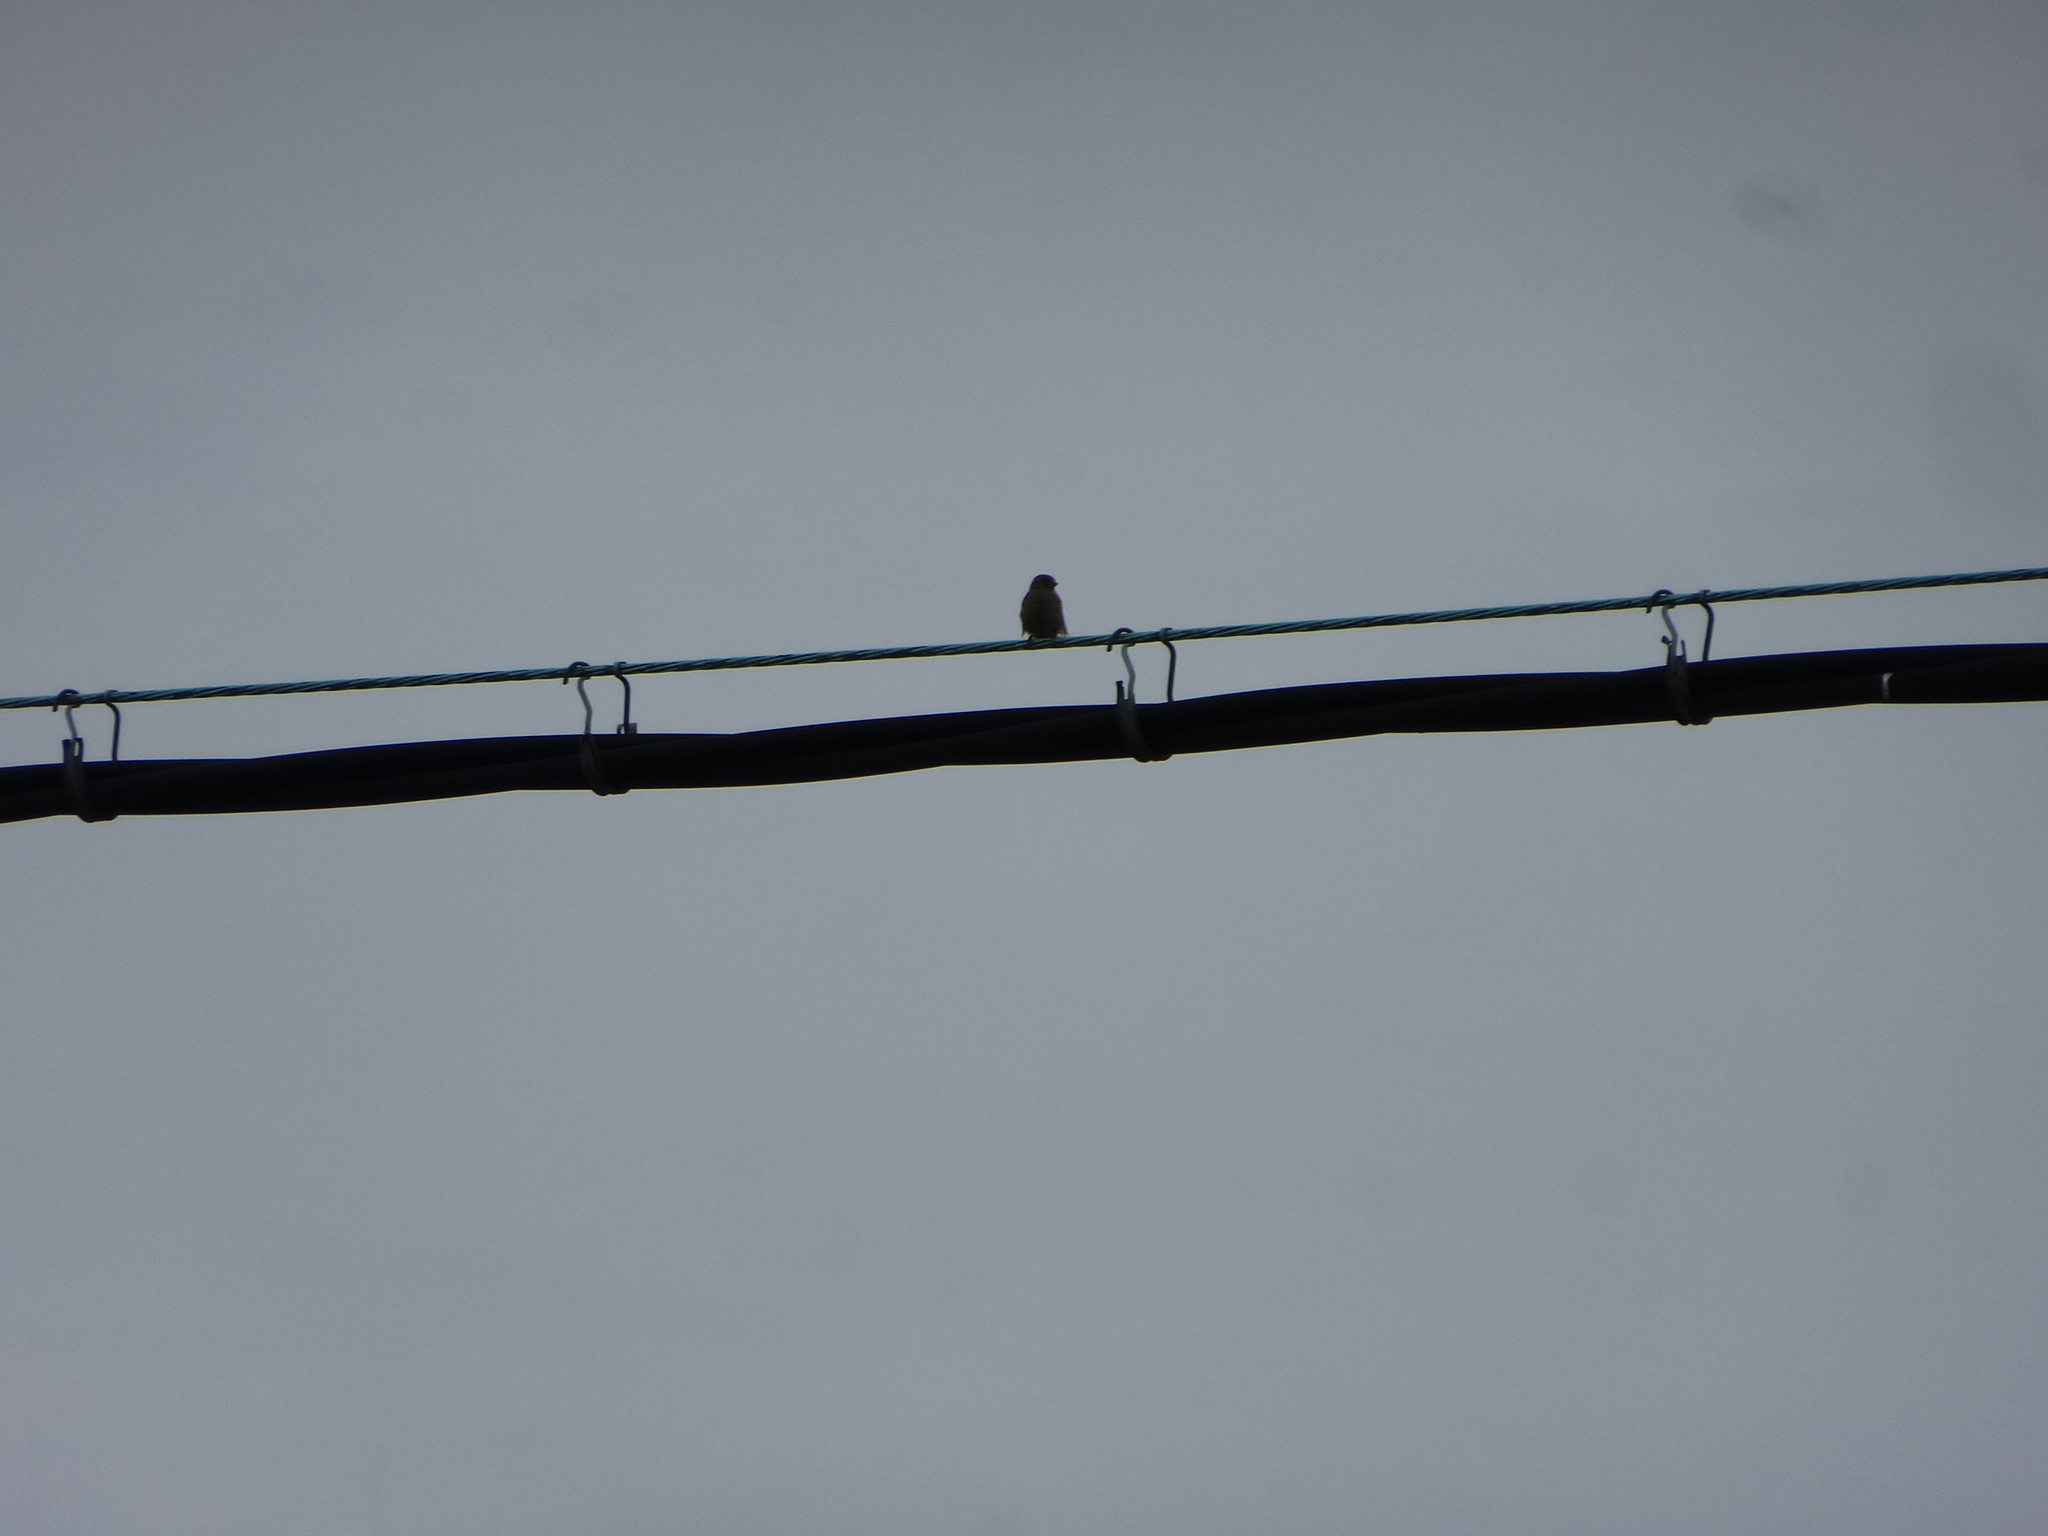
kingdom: Animalia
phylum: Chordata
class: Aves
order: Passeriformes
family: Passeridae
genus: Passer
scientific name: Passer domesticus
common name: House sparrow
